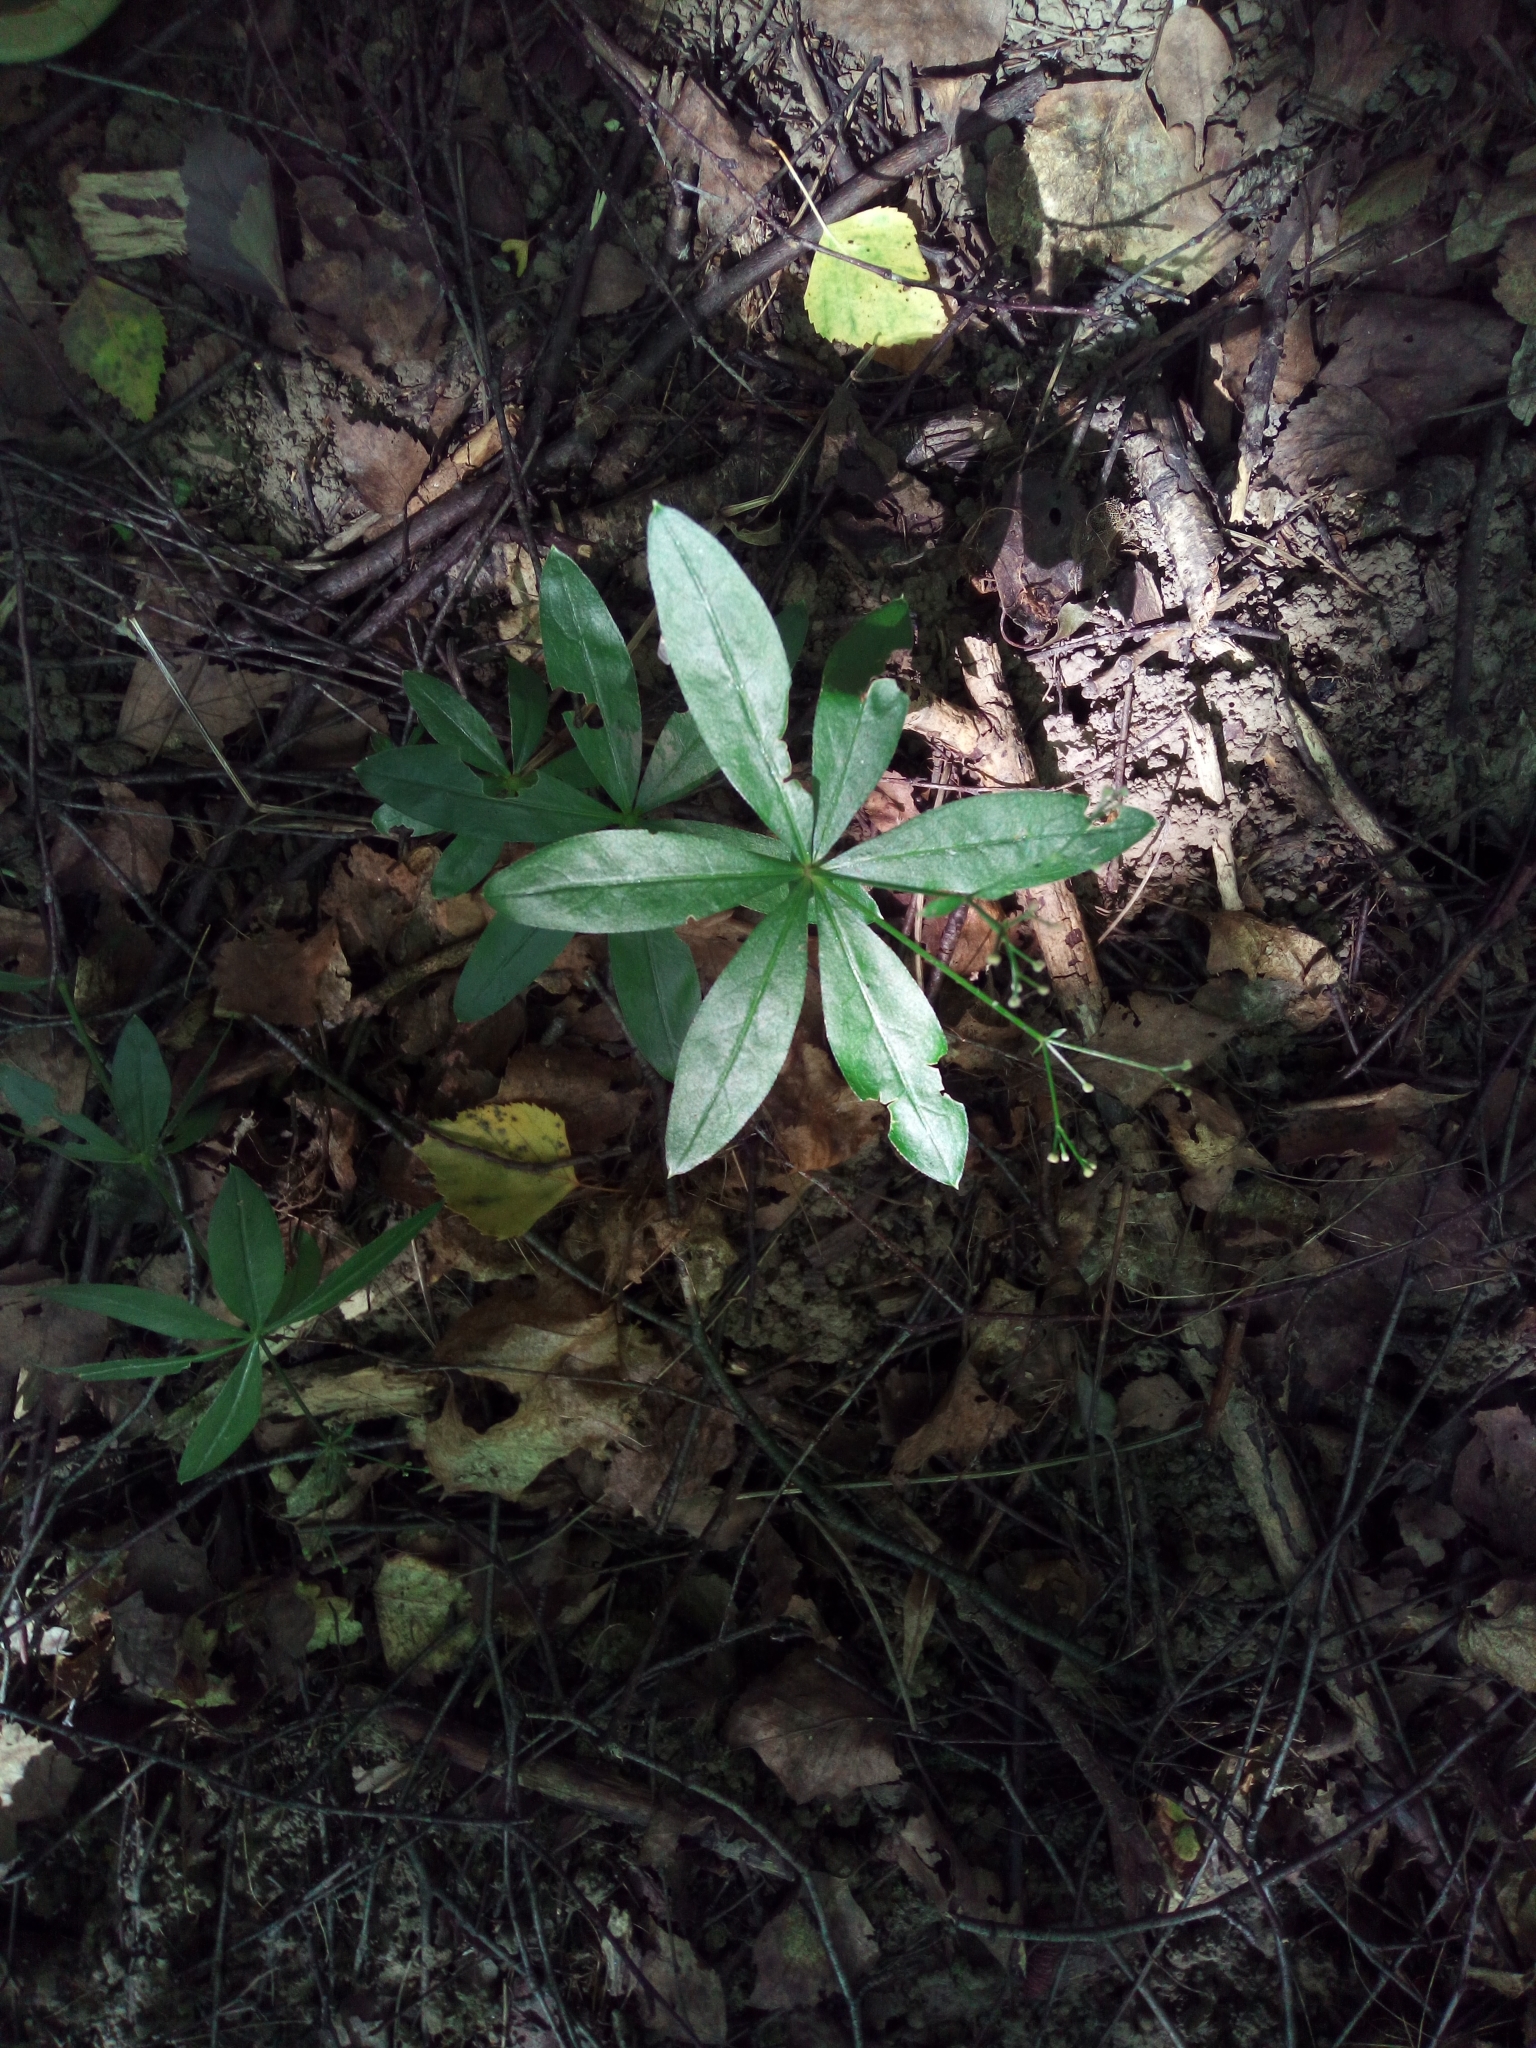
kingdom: Plantae
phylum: Tracheophyta
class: Magnoliopsida
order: Gentianales
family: Rubiaceae
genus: Galium
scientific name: Galium odoratum
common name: Sweet woodruff
